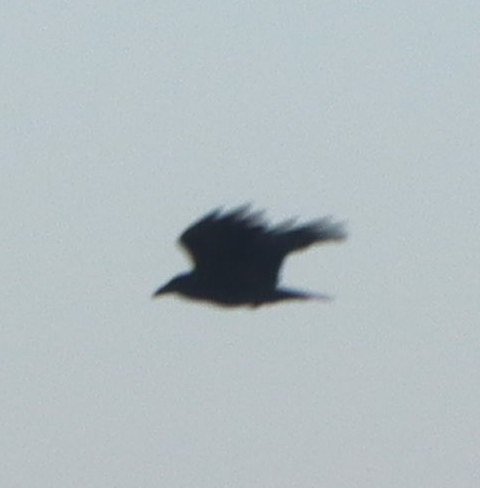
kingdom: Animalia
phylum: Chordata
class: Aves
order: Passeriformes
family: Corvidae
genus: Corvus
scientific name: Corvus corax
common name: Common raven
